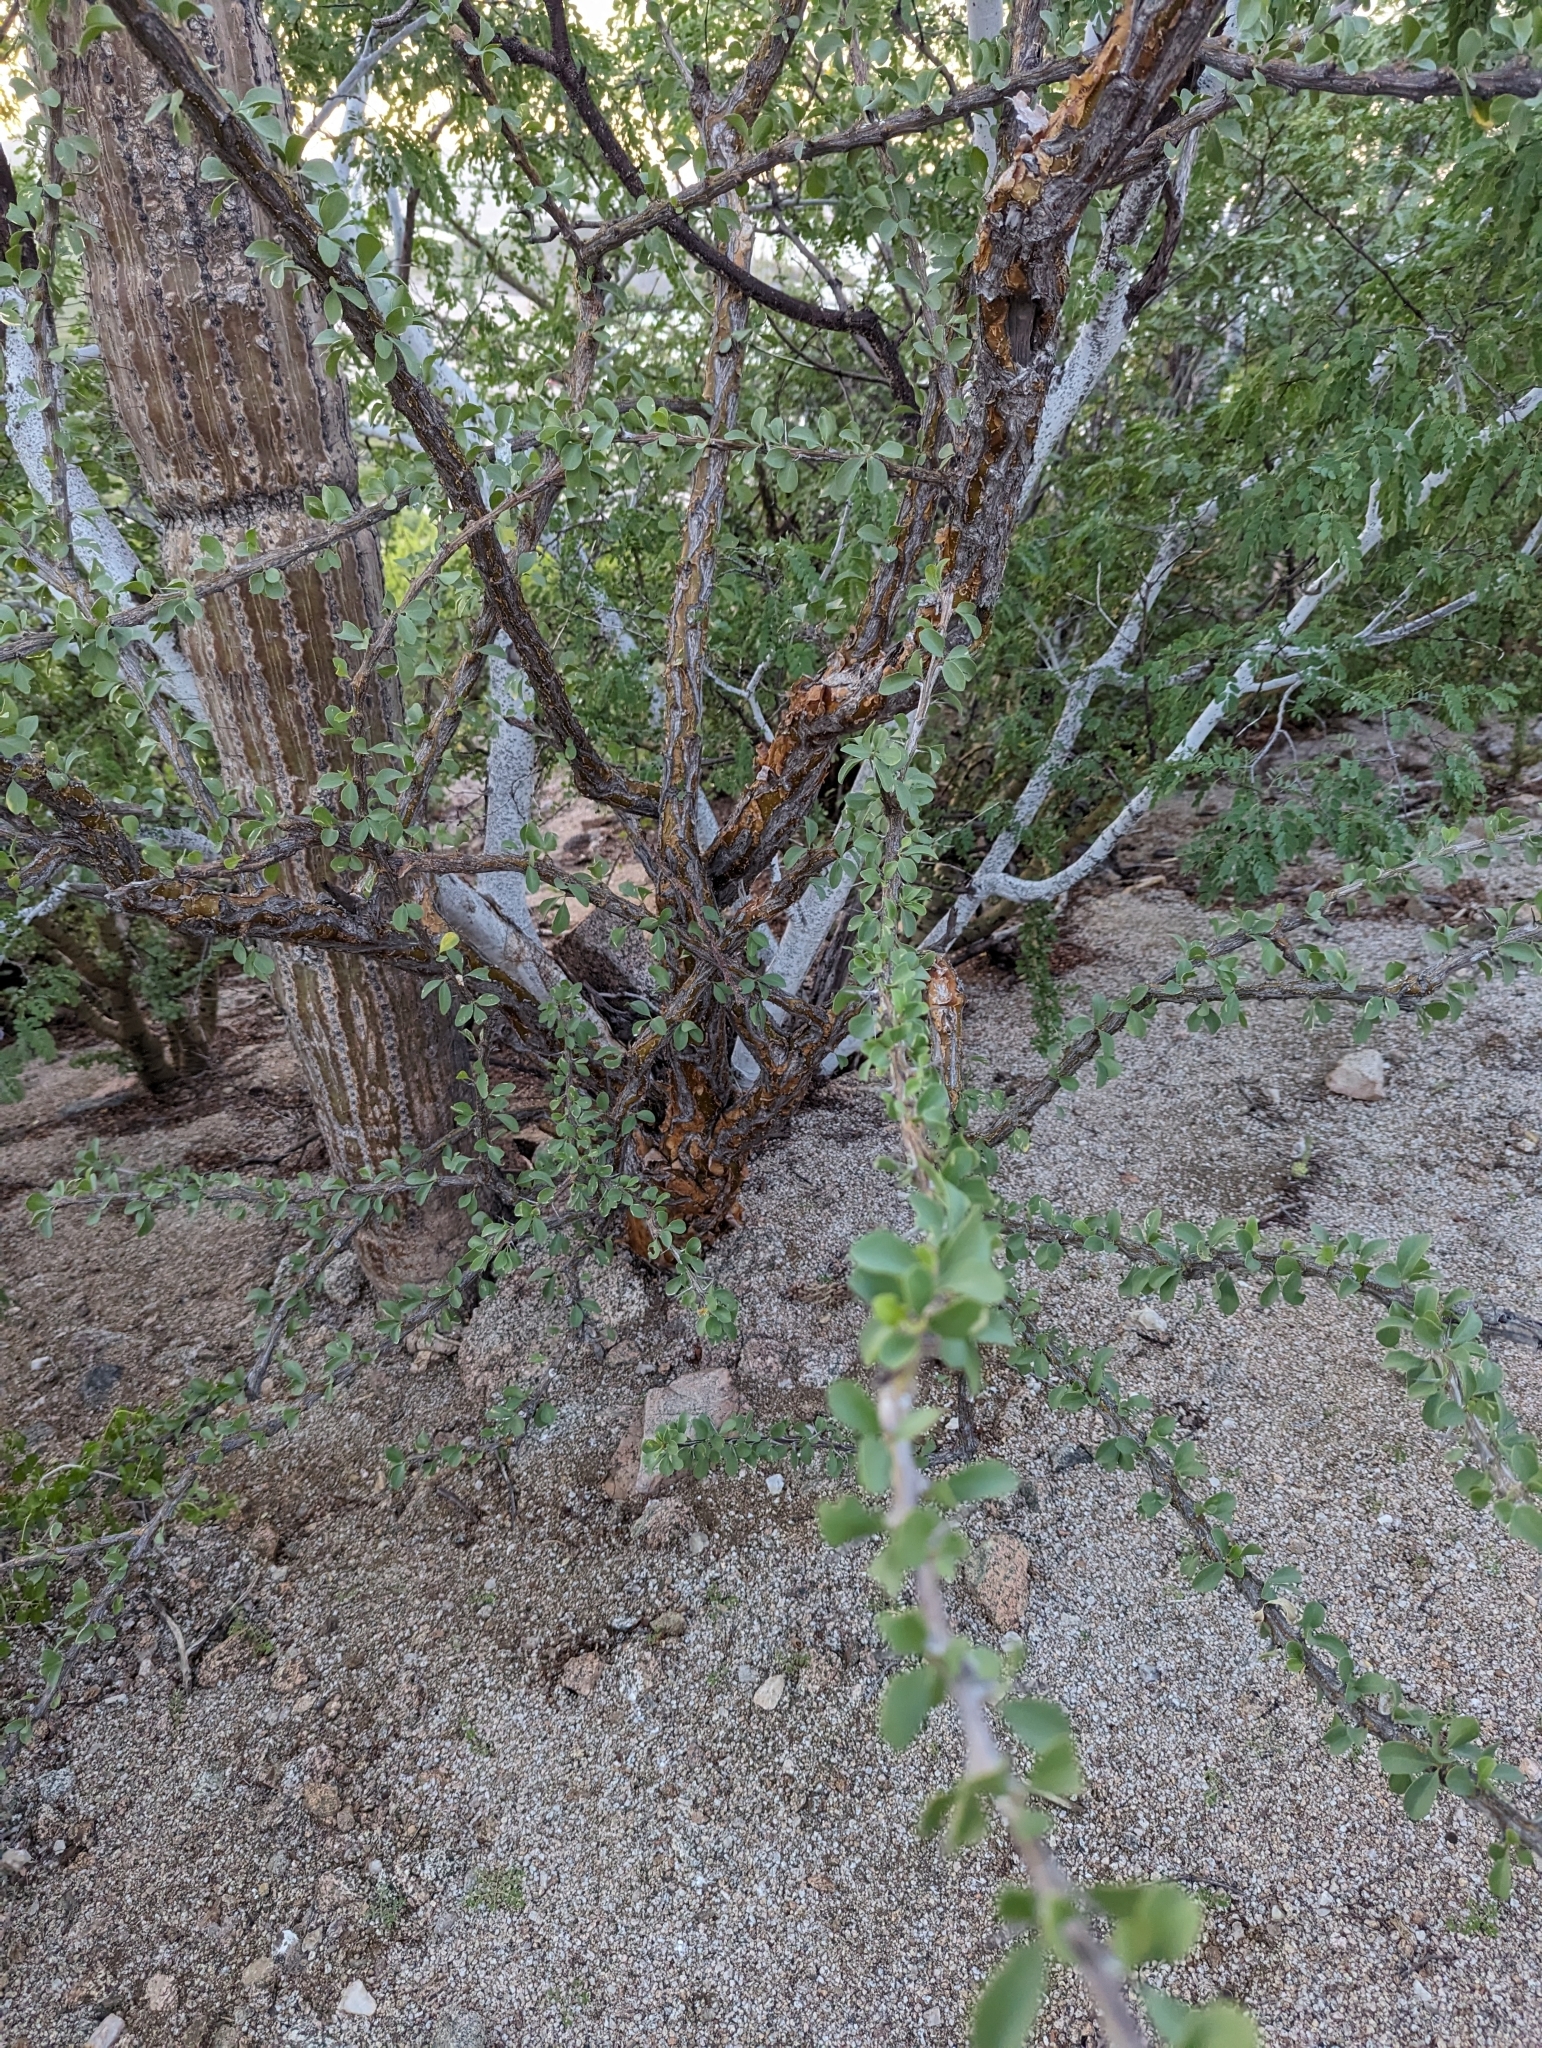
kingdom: Plantae
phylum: Tracheophyta
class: Magnoliopsida
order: Ericales
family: Fouquieriaceae
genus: Fouquieria
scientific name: Fouquieria diguetii
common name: Adam's tree
